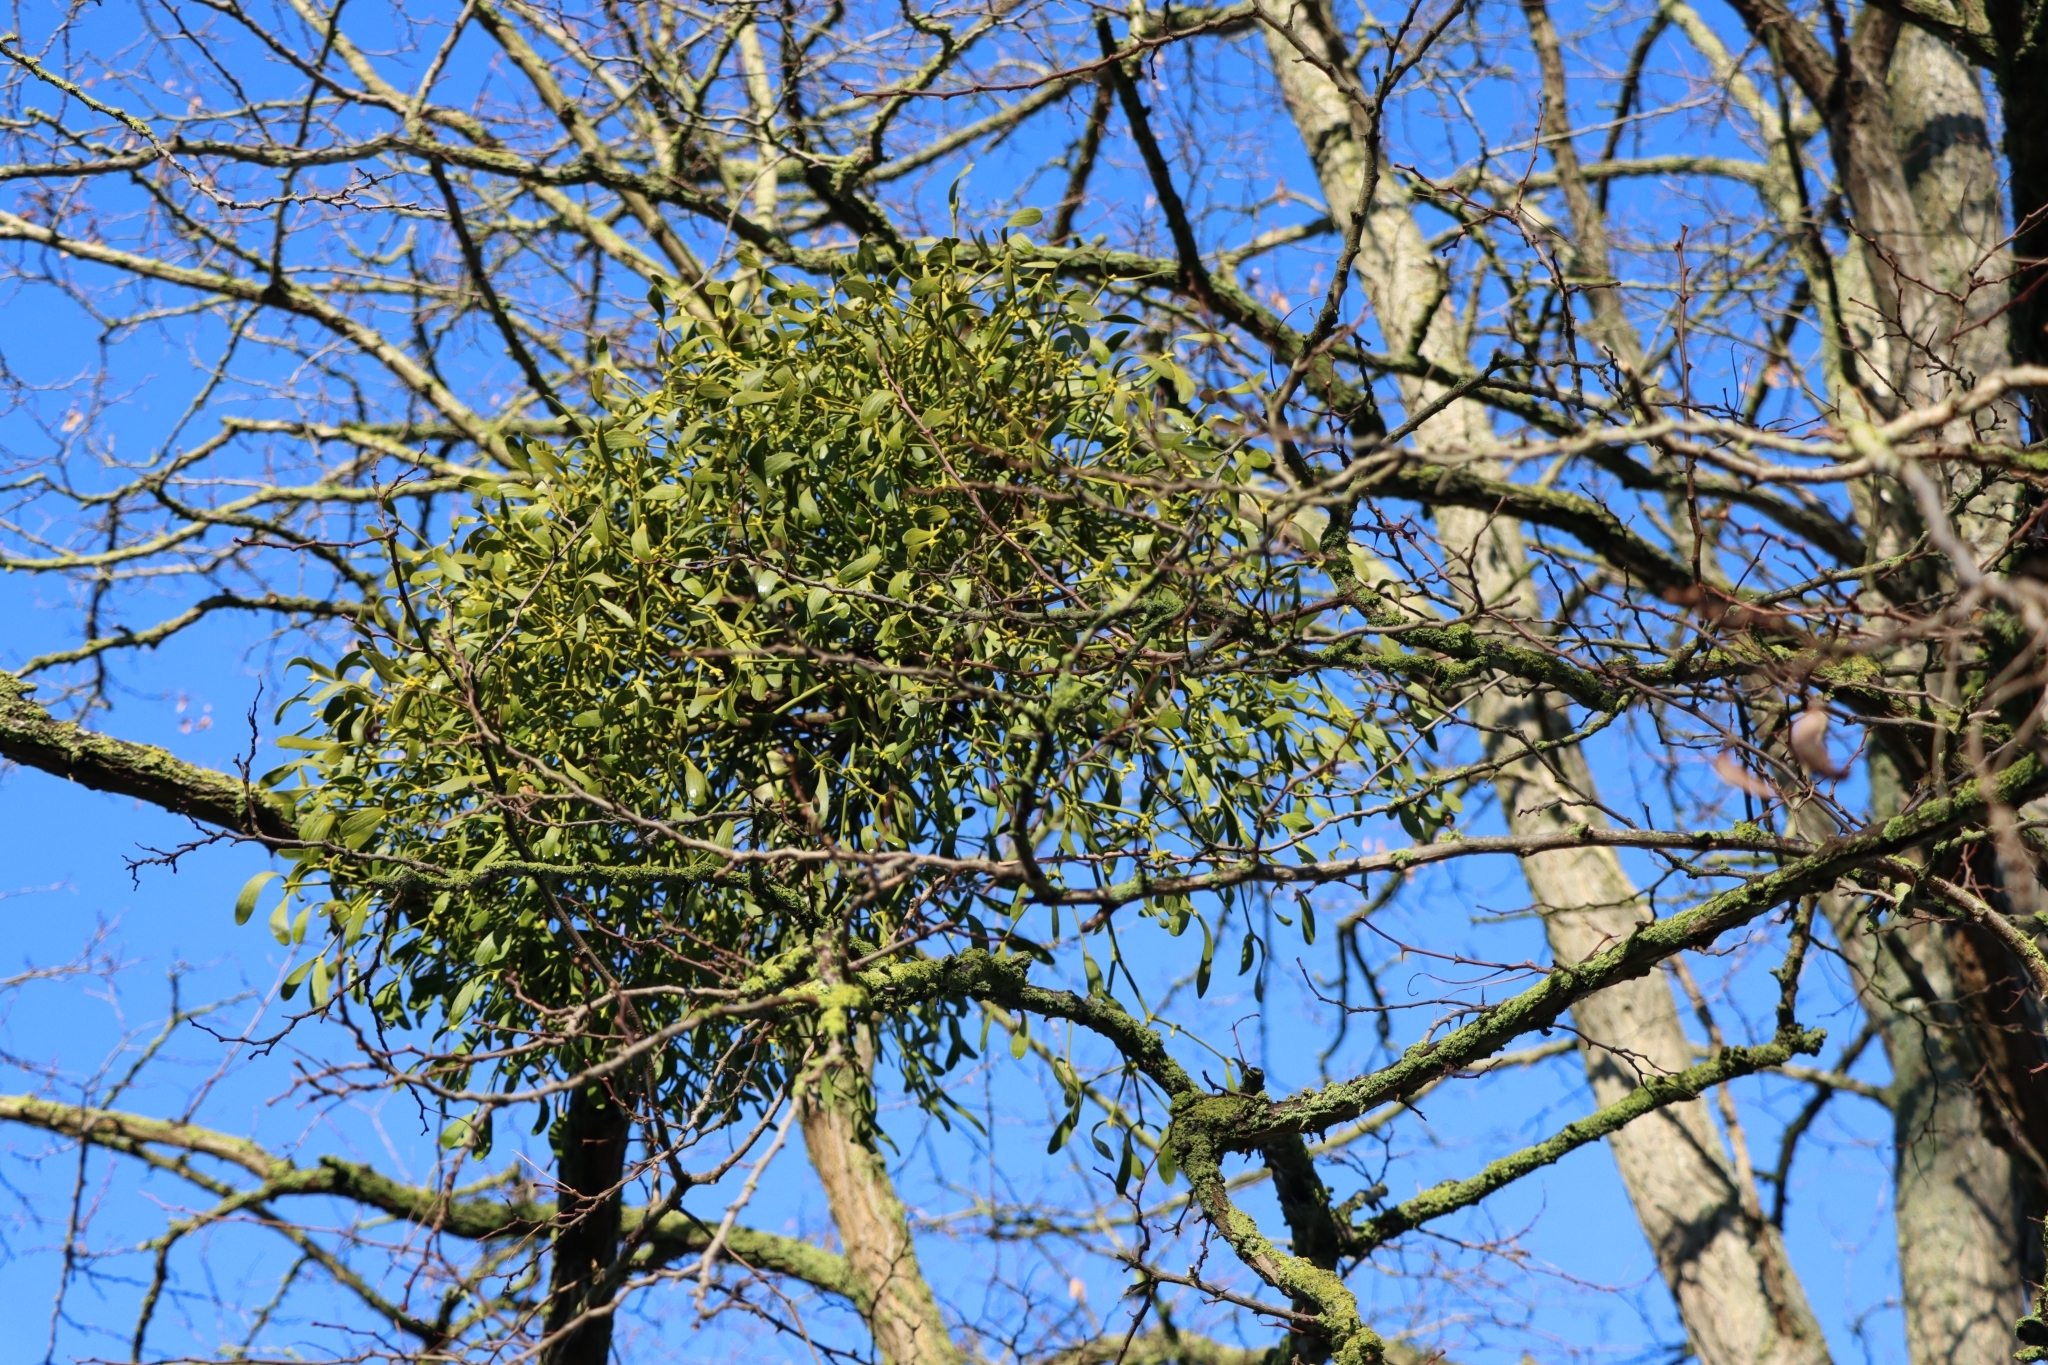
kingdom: Plantae
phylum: Tracheophyta
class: Magnoliopsida
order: Santalales
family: Viscaceae
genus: Viscum
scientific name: Viscum album
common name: Mistletoe
